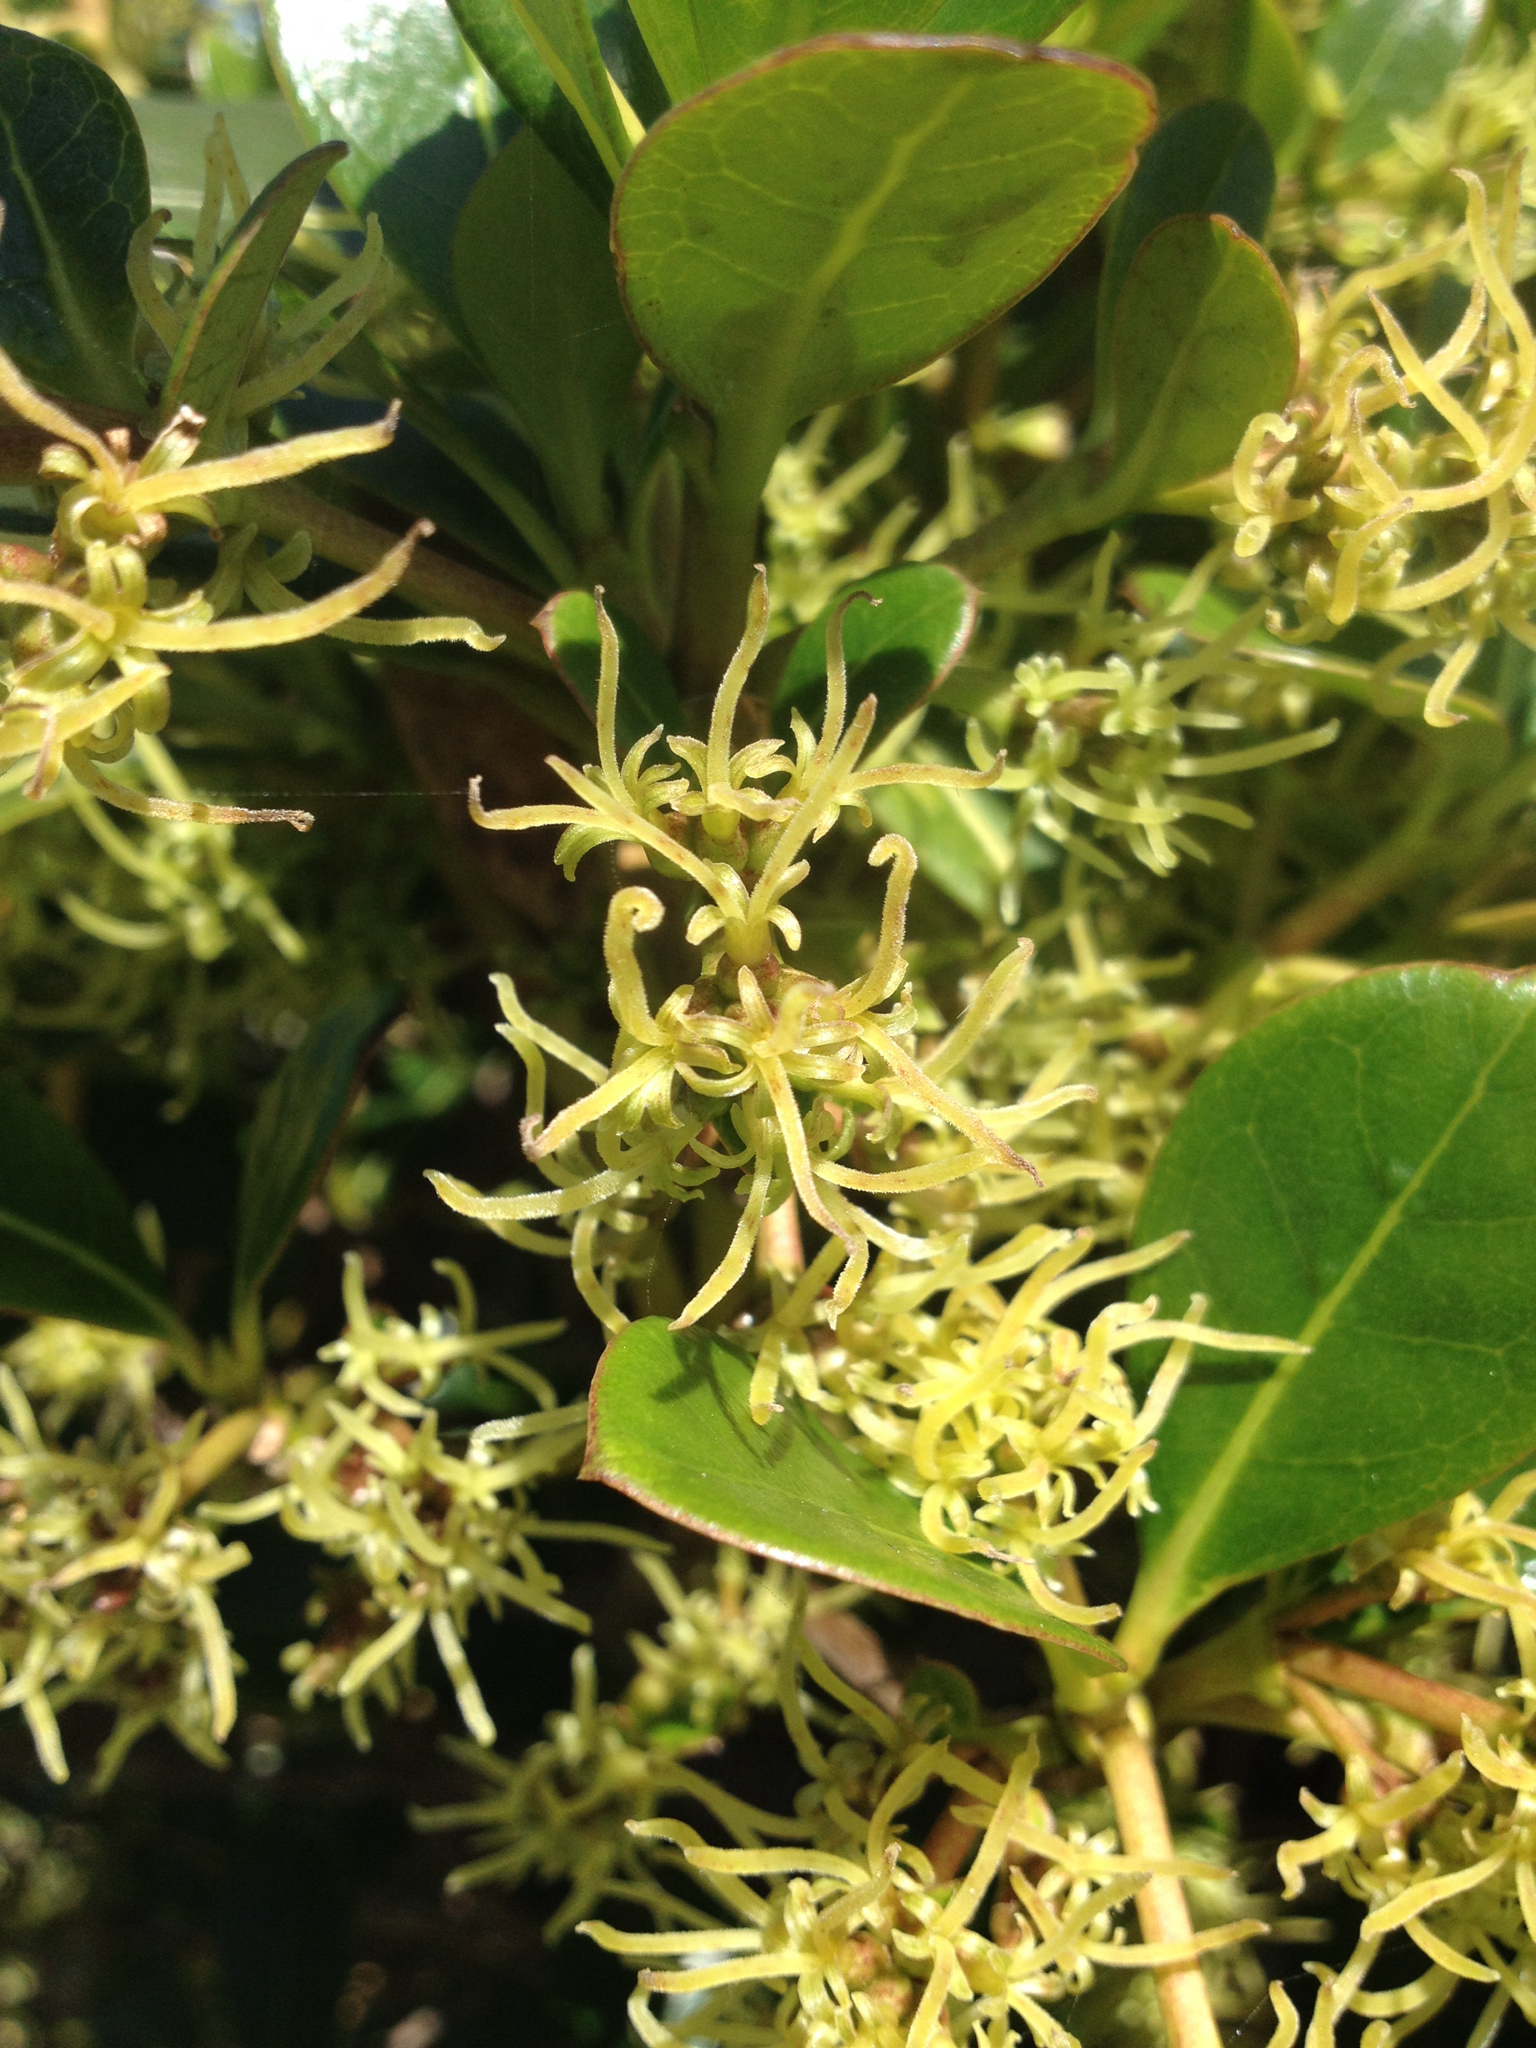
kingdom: Plantae
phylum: Tracheophyta
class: Magnoliopsida
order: Gentianales
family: Rubiaceae
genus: Coprosma
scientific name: Coprosma lucida
